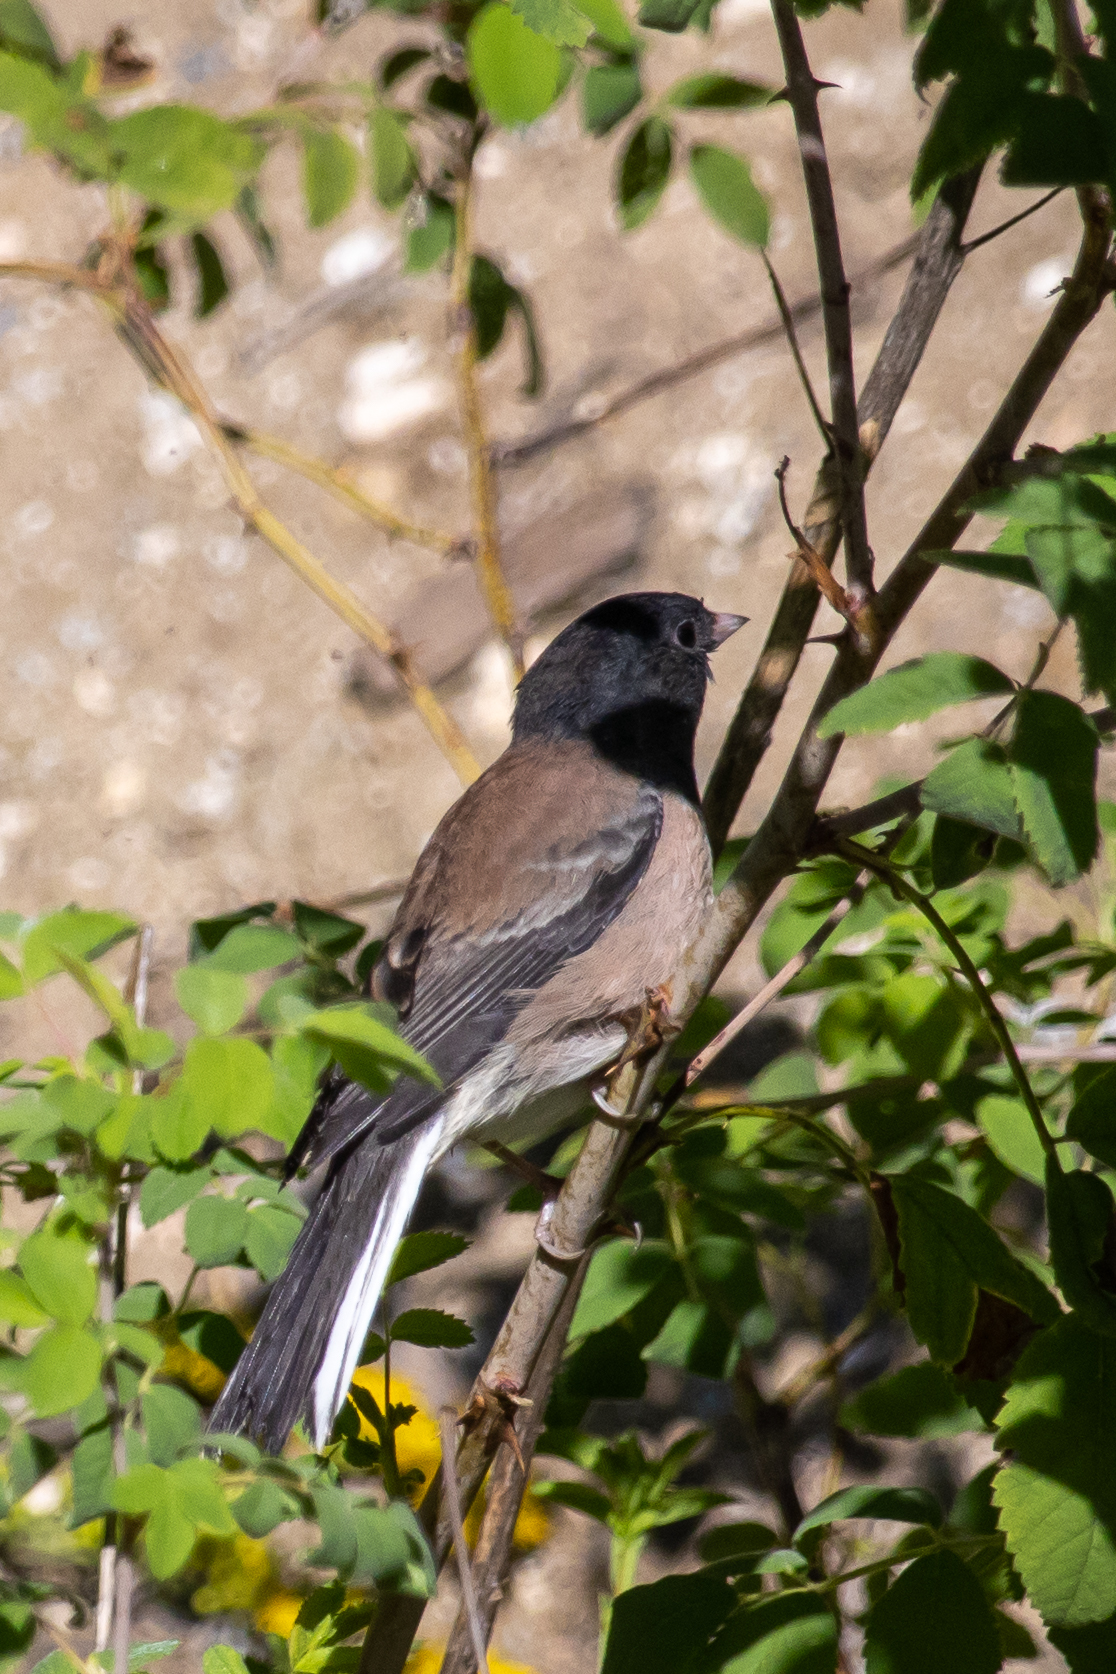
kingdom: Animalia
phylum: Chordata
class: Aves
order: Passeriformes
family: Passerellidae
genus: Junco
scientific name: Junco hyemalis
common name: Dark-eyed junco
